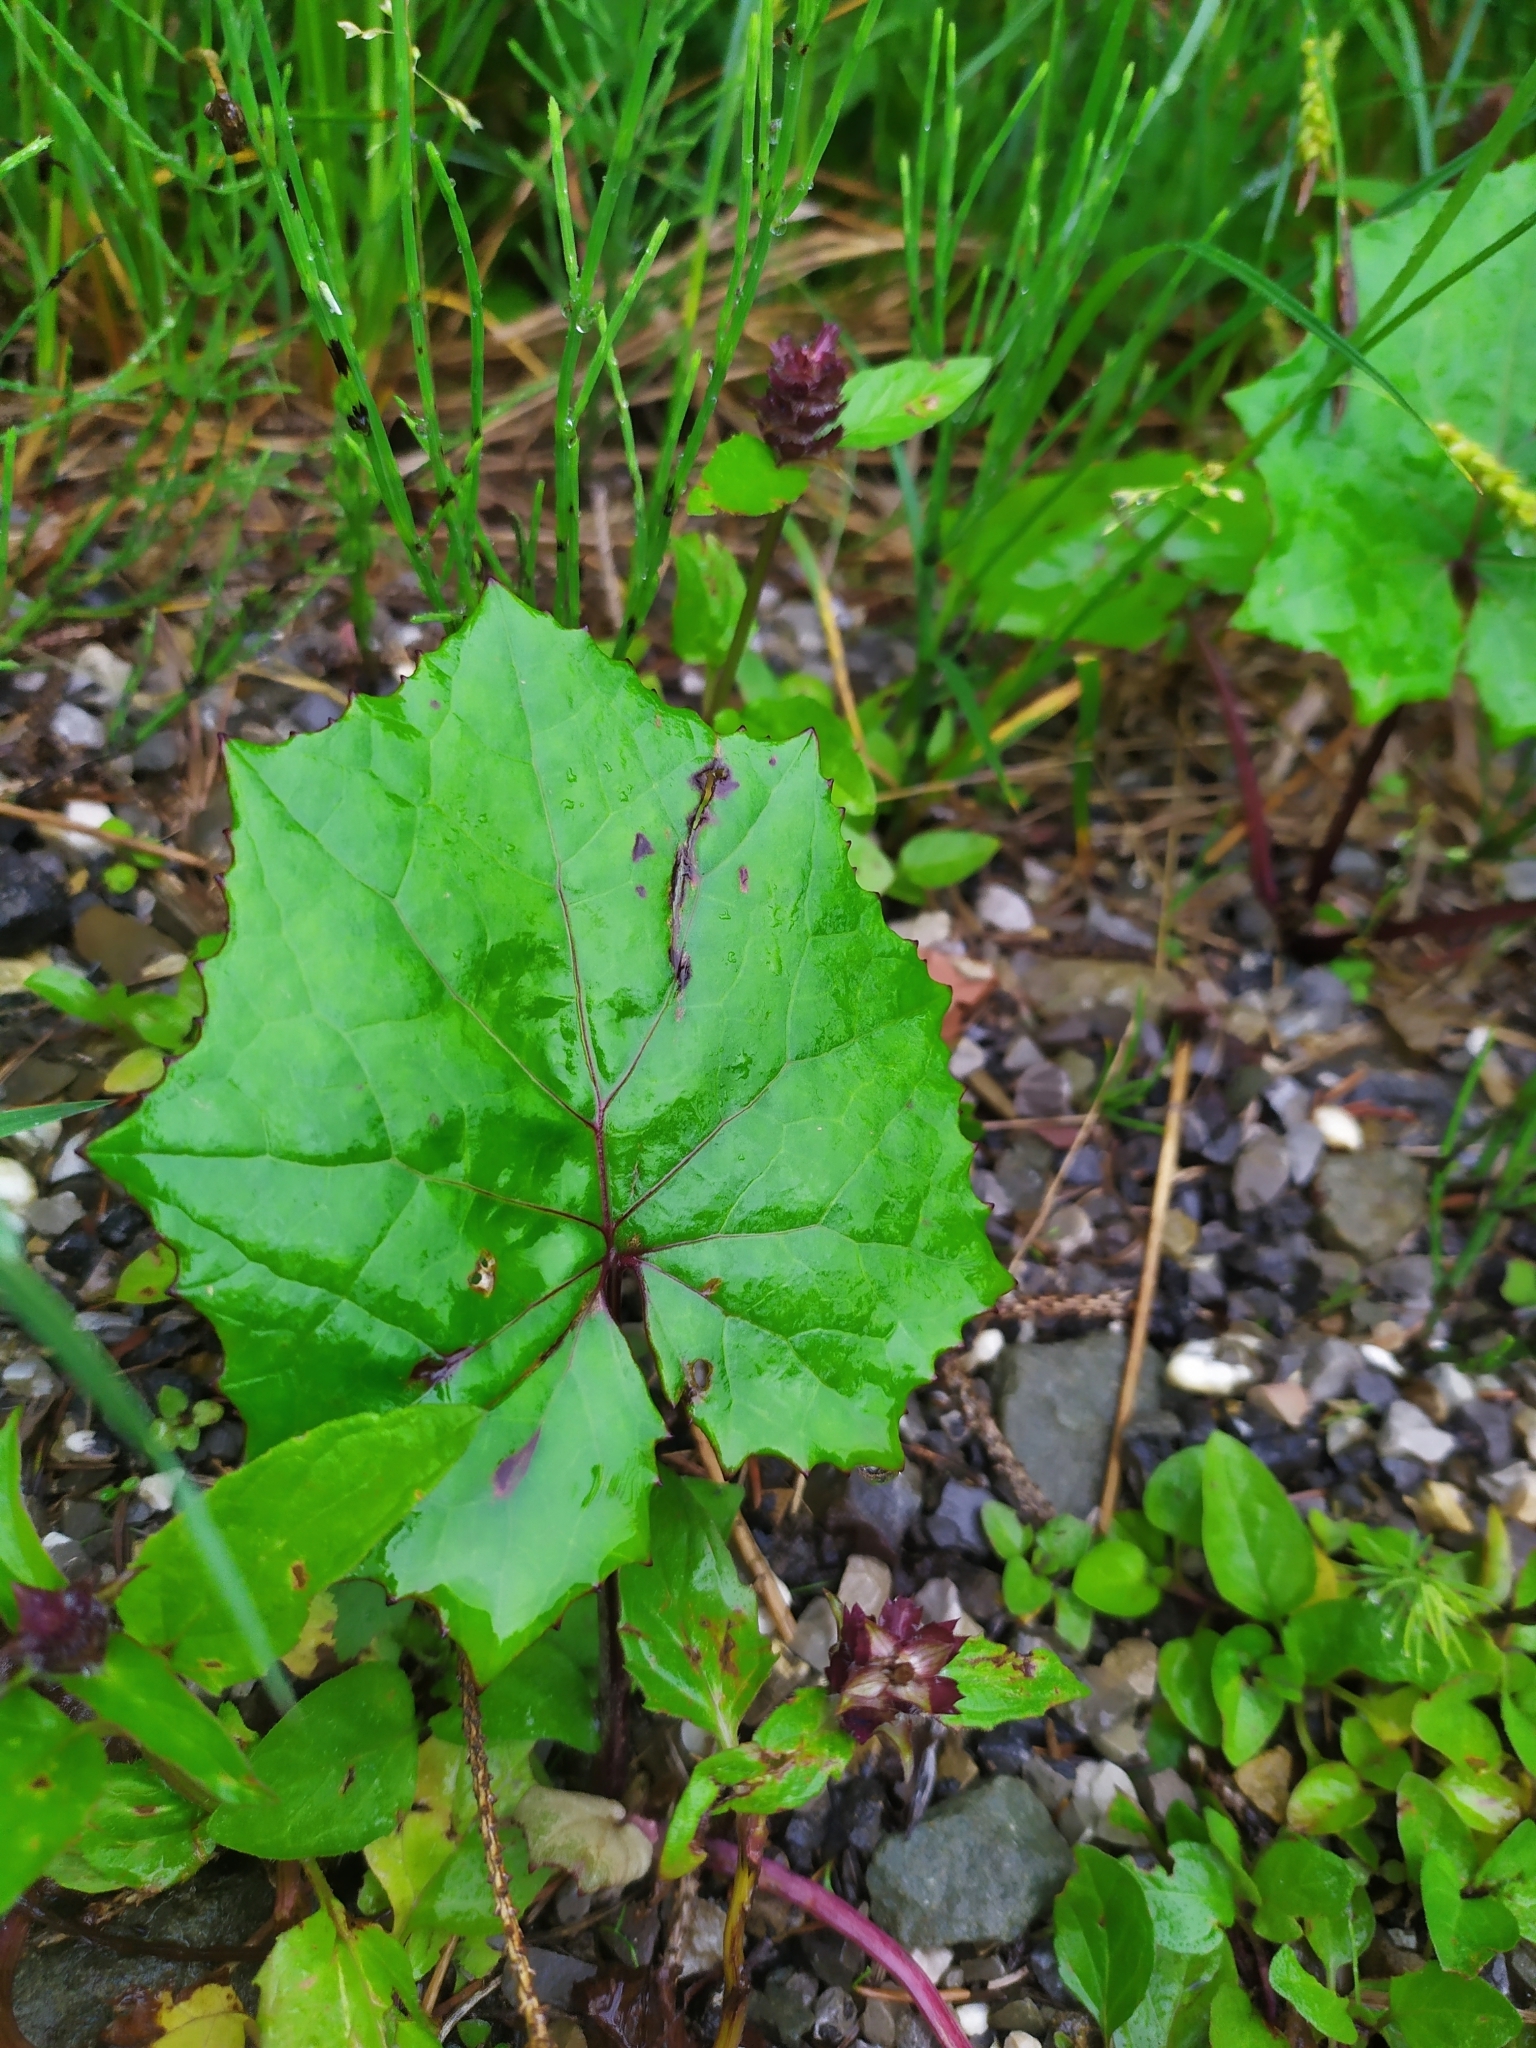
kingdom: Plantae
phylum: Tracheophyta
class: Magnoliopsida
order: Asterales
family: Asteraceae
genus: Tussilago
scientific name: Tussilago farfara
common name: Coltsfoot
